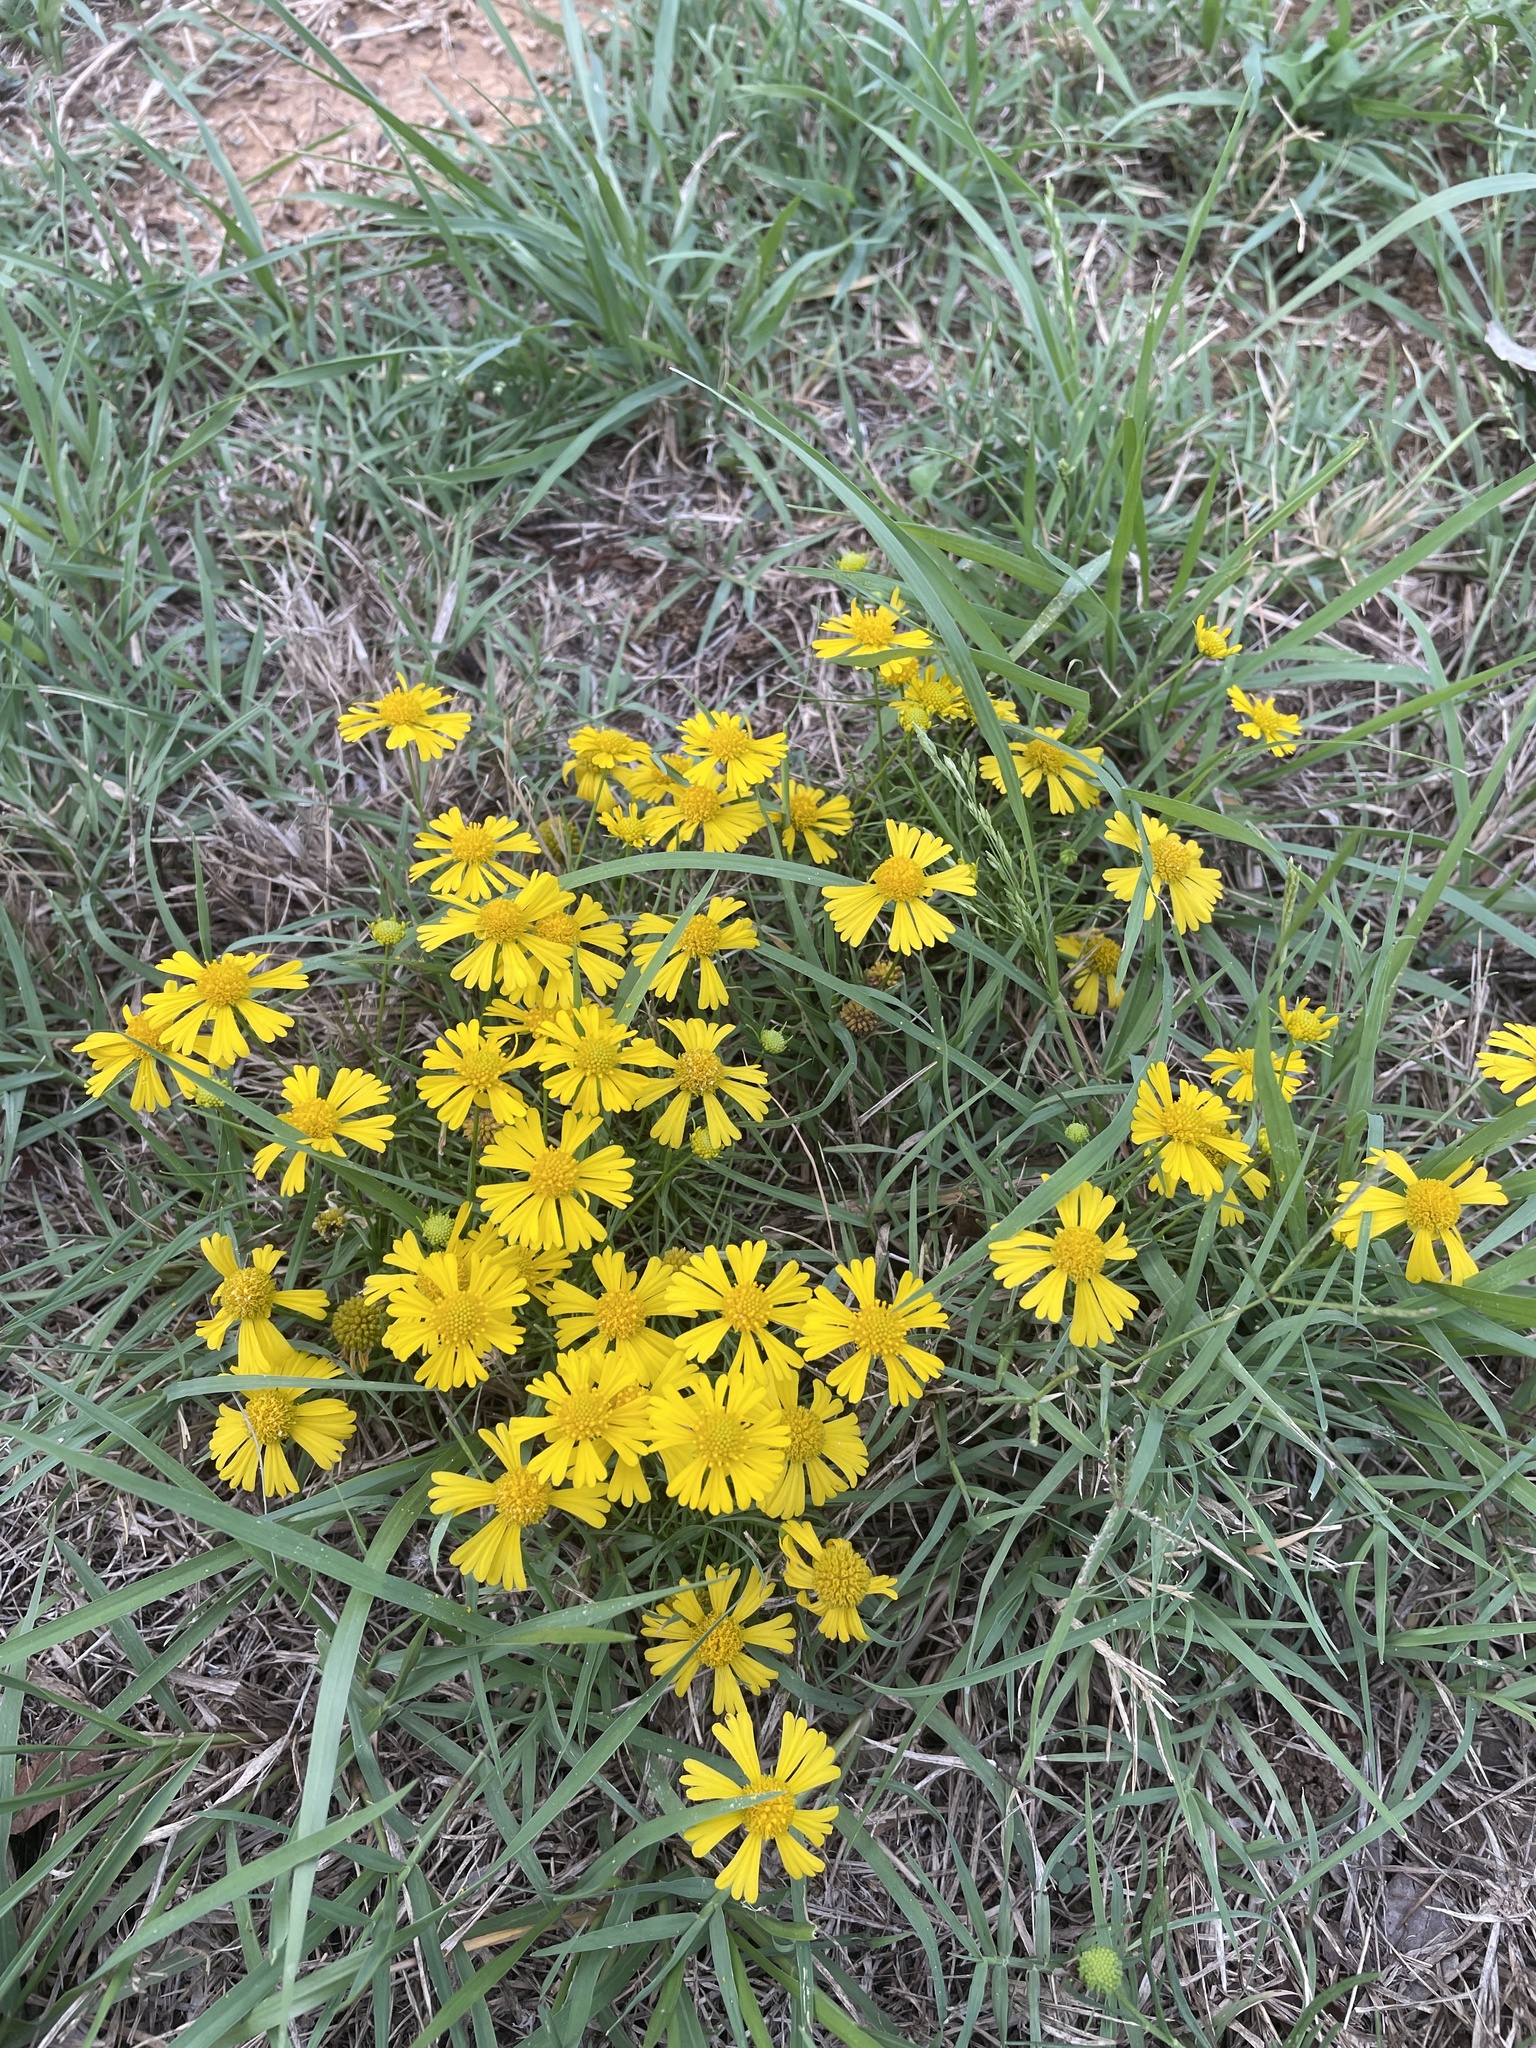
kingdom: Plantae
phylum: Tracheophyta
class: Magnoliopsida
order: Asterales
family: Asteraceae
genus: Helenium
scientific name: Helenium amarum
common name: Bitter sneezeweed
